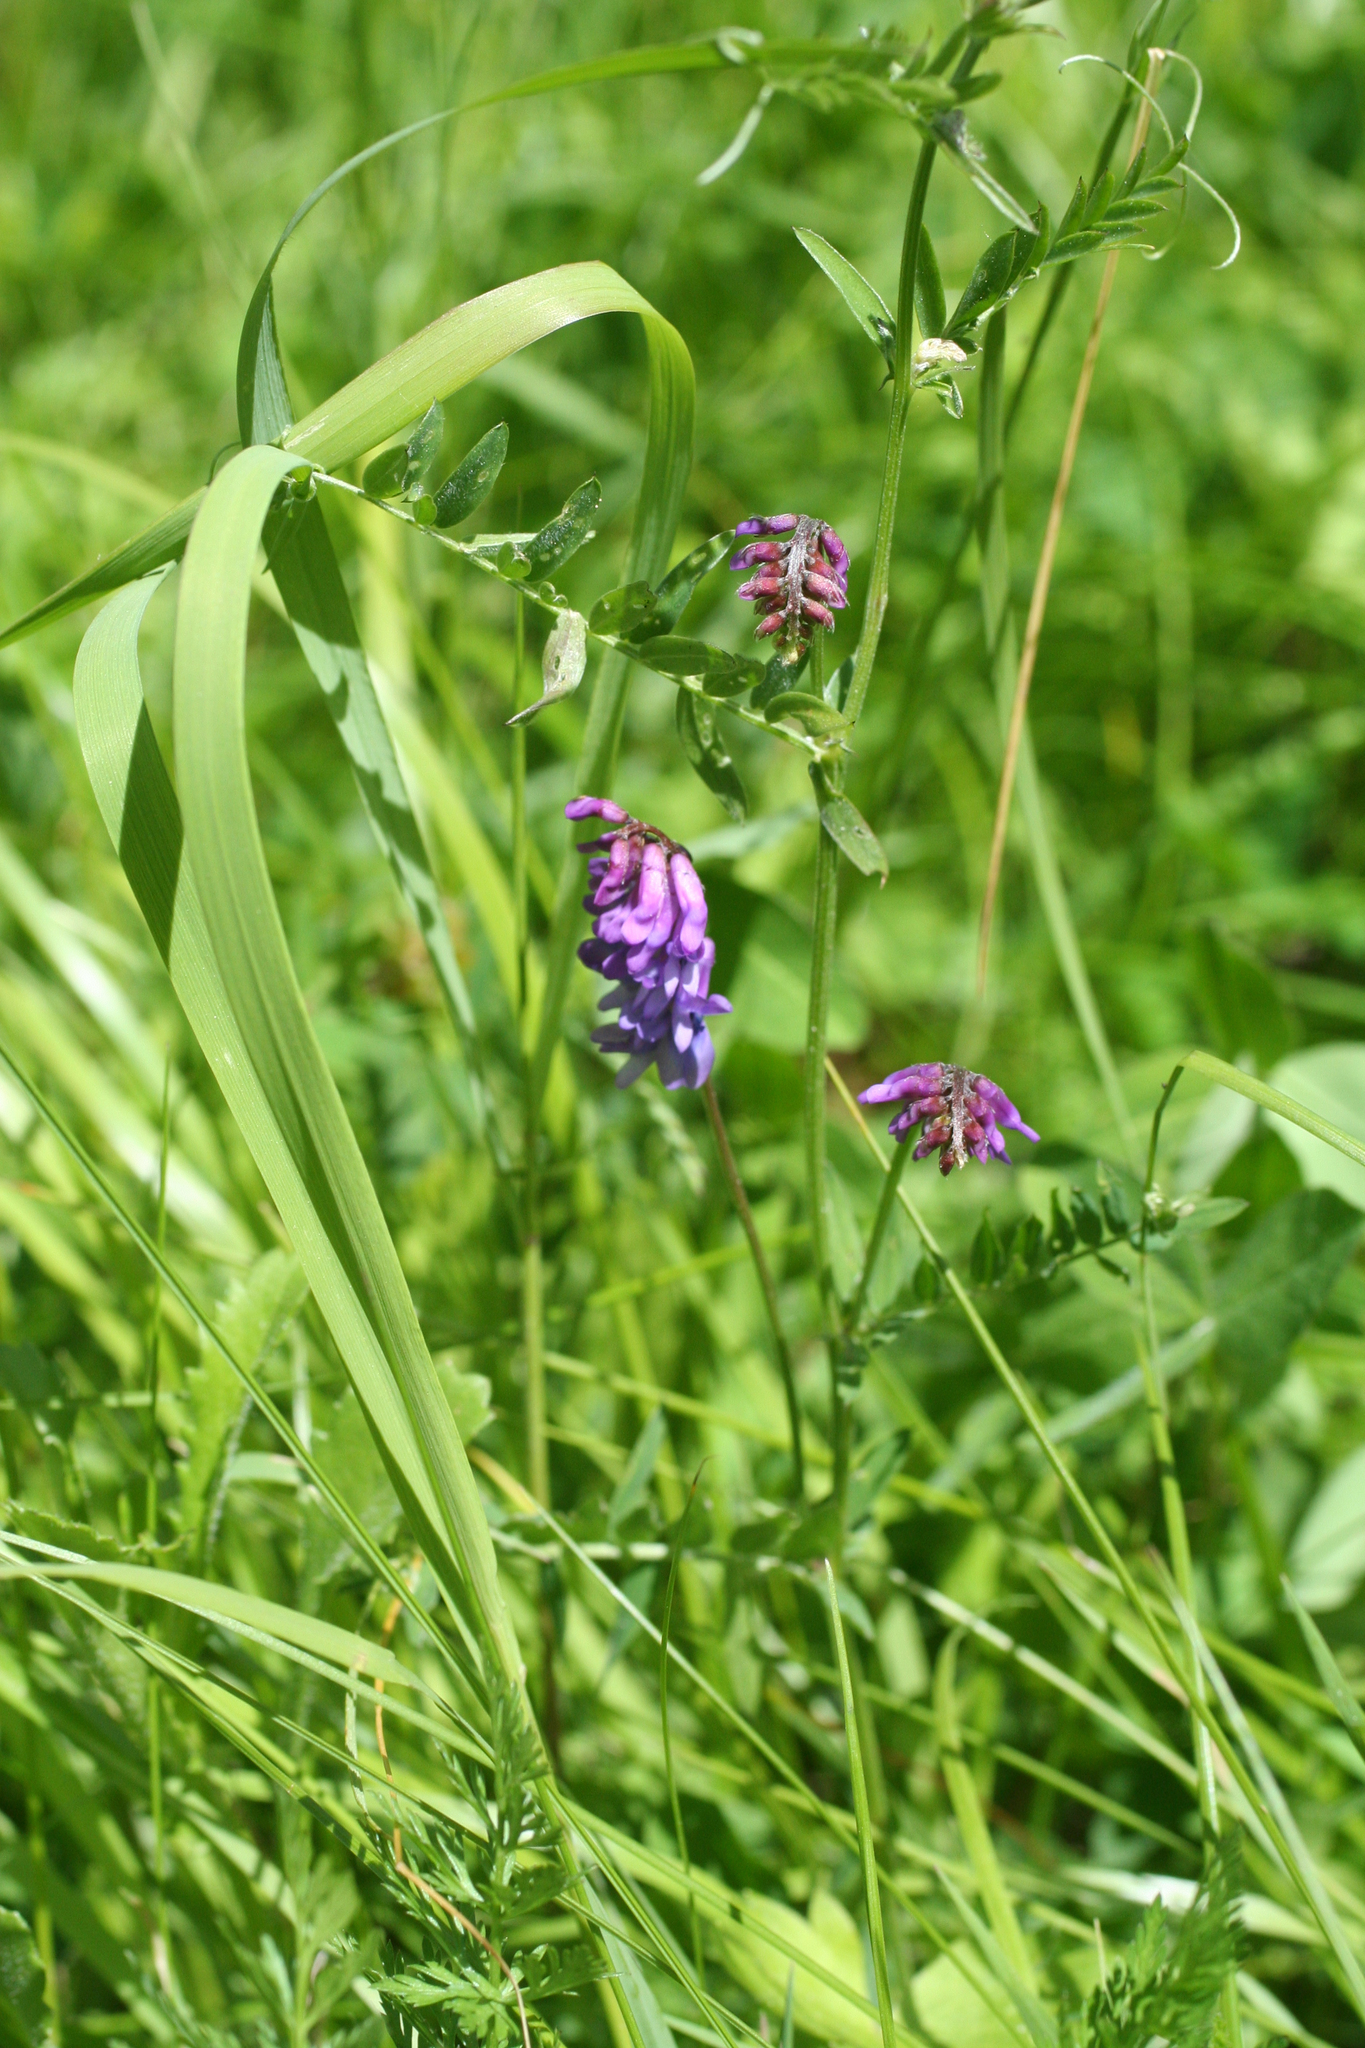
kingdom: Plantae
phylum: Tracheophyta
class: Magnoliopsida
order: Fabales
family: Fabaceae
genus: Vicia
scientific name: Vicia cracca
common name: Bird vetch
